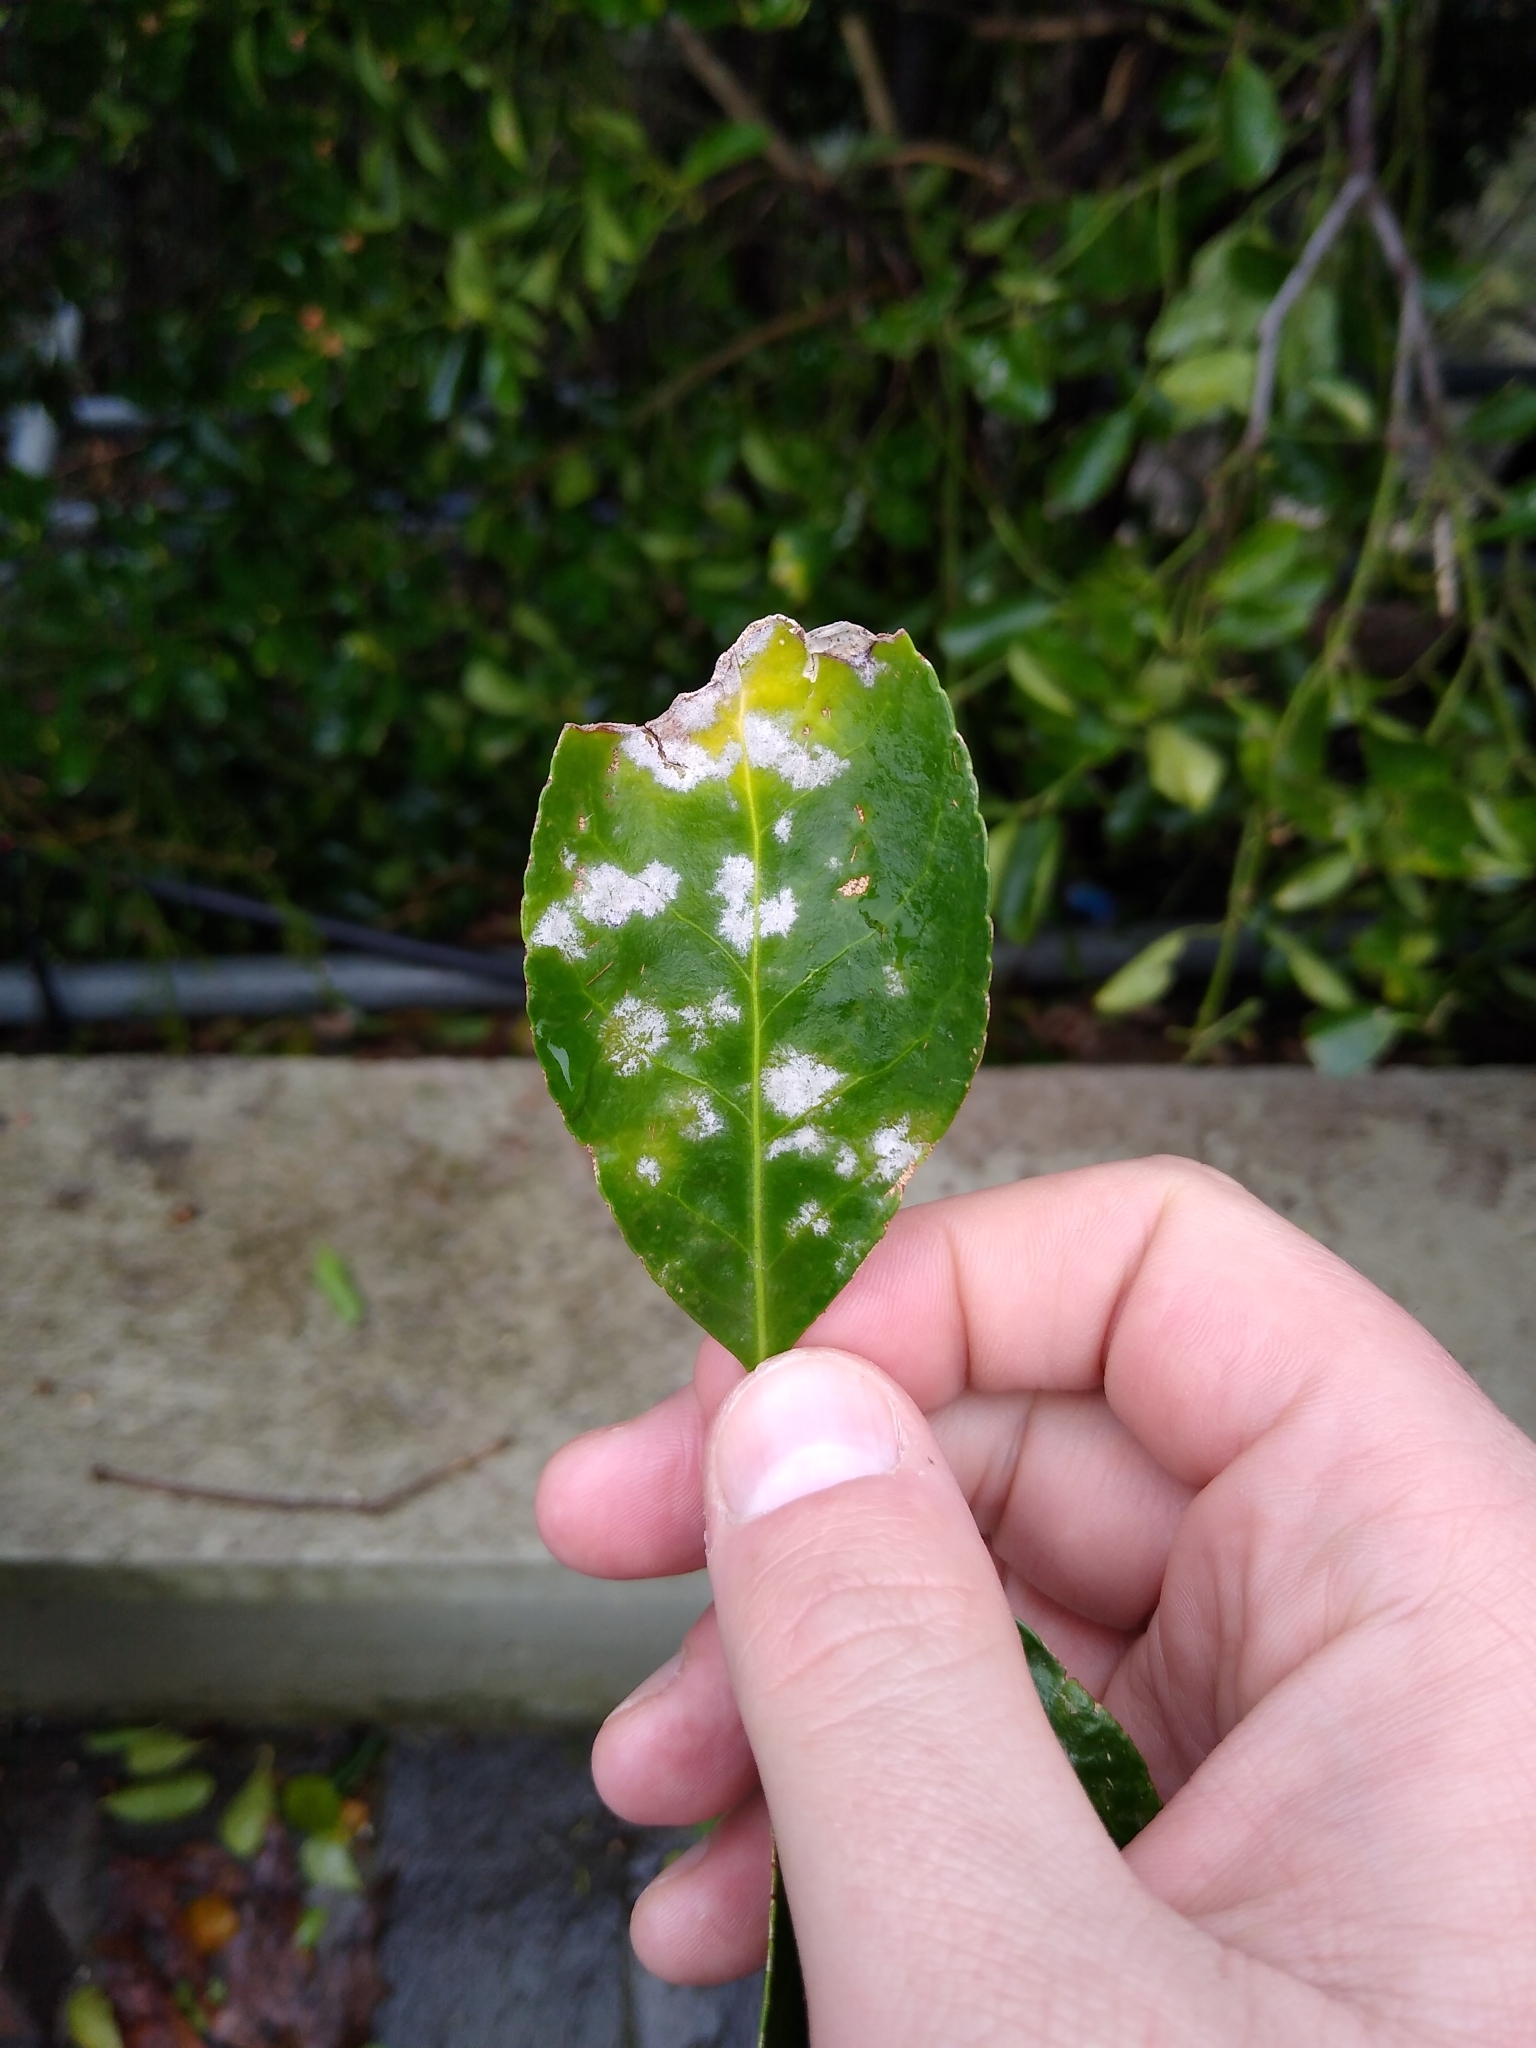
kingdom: Fungi
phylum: Ascomycota
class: Leotiomycetes
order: Helotiales
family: Erysiphaceae
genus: Erysiphe
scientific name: Erysiphe euonymicola
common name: Spindletree mildew
